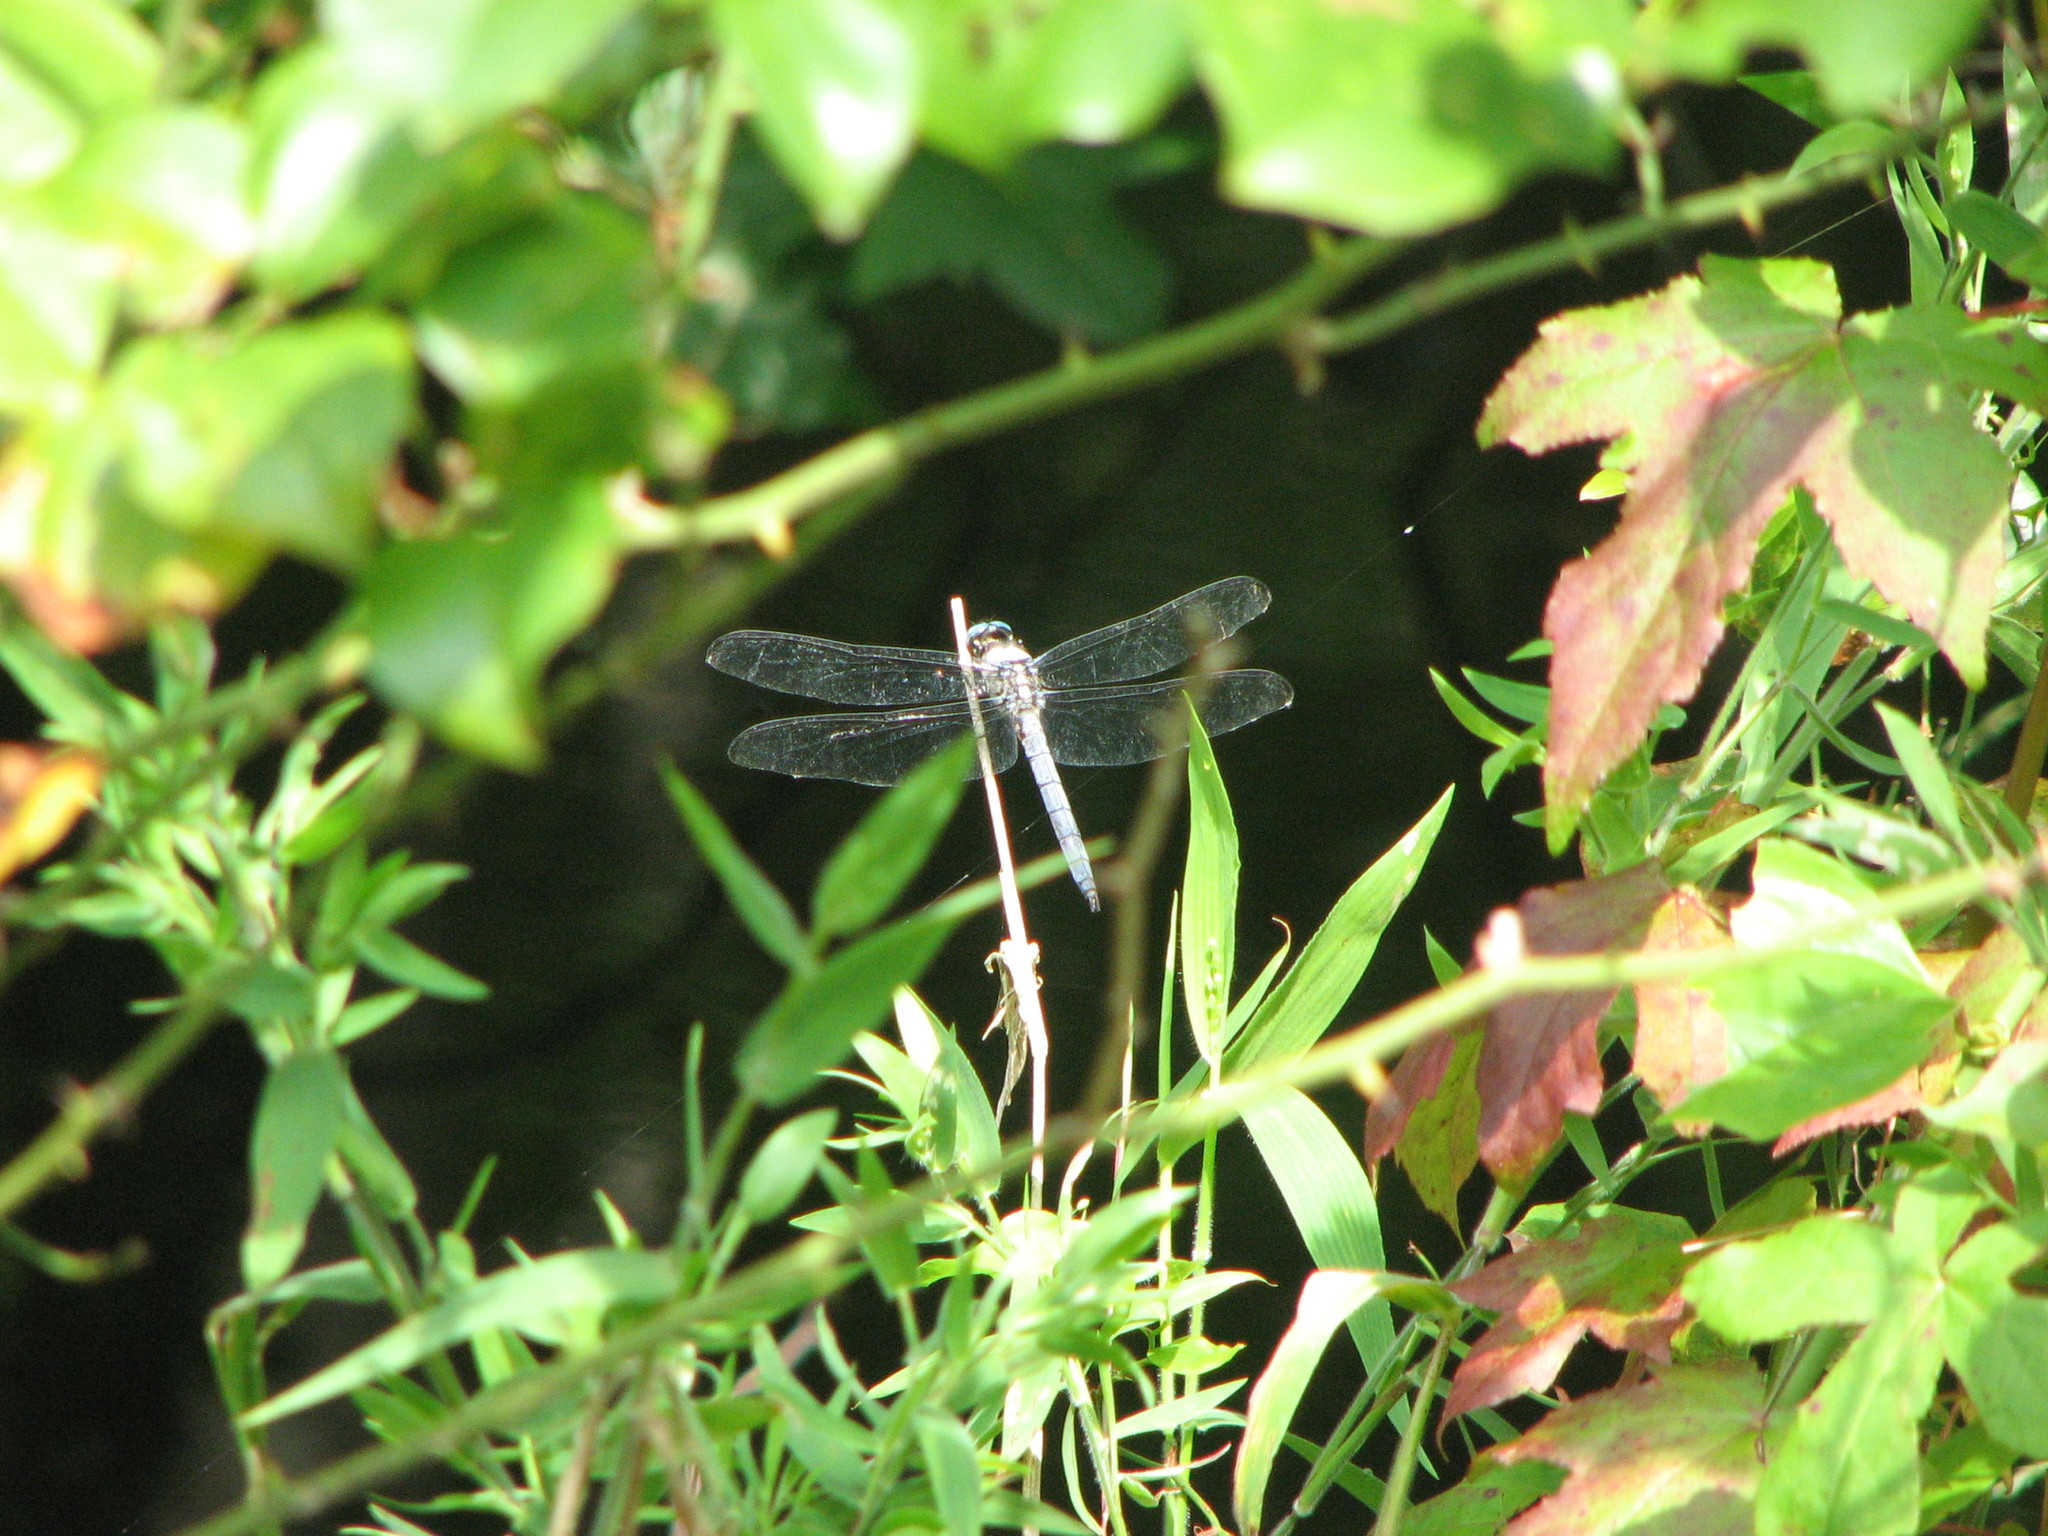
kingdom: Animalia
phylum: Arthropoda
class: Insecta
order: Odonata
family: Libellulidae
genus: Libellula
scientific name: Libellula vibrans
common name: Great blue skimmer
